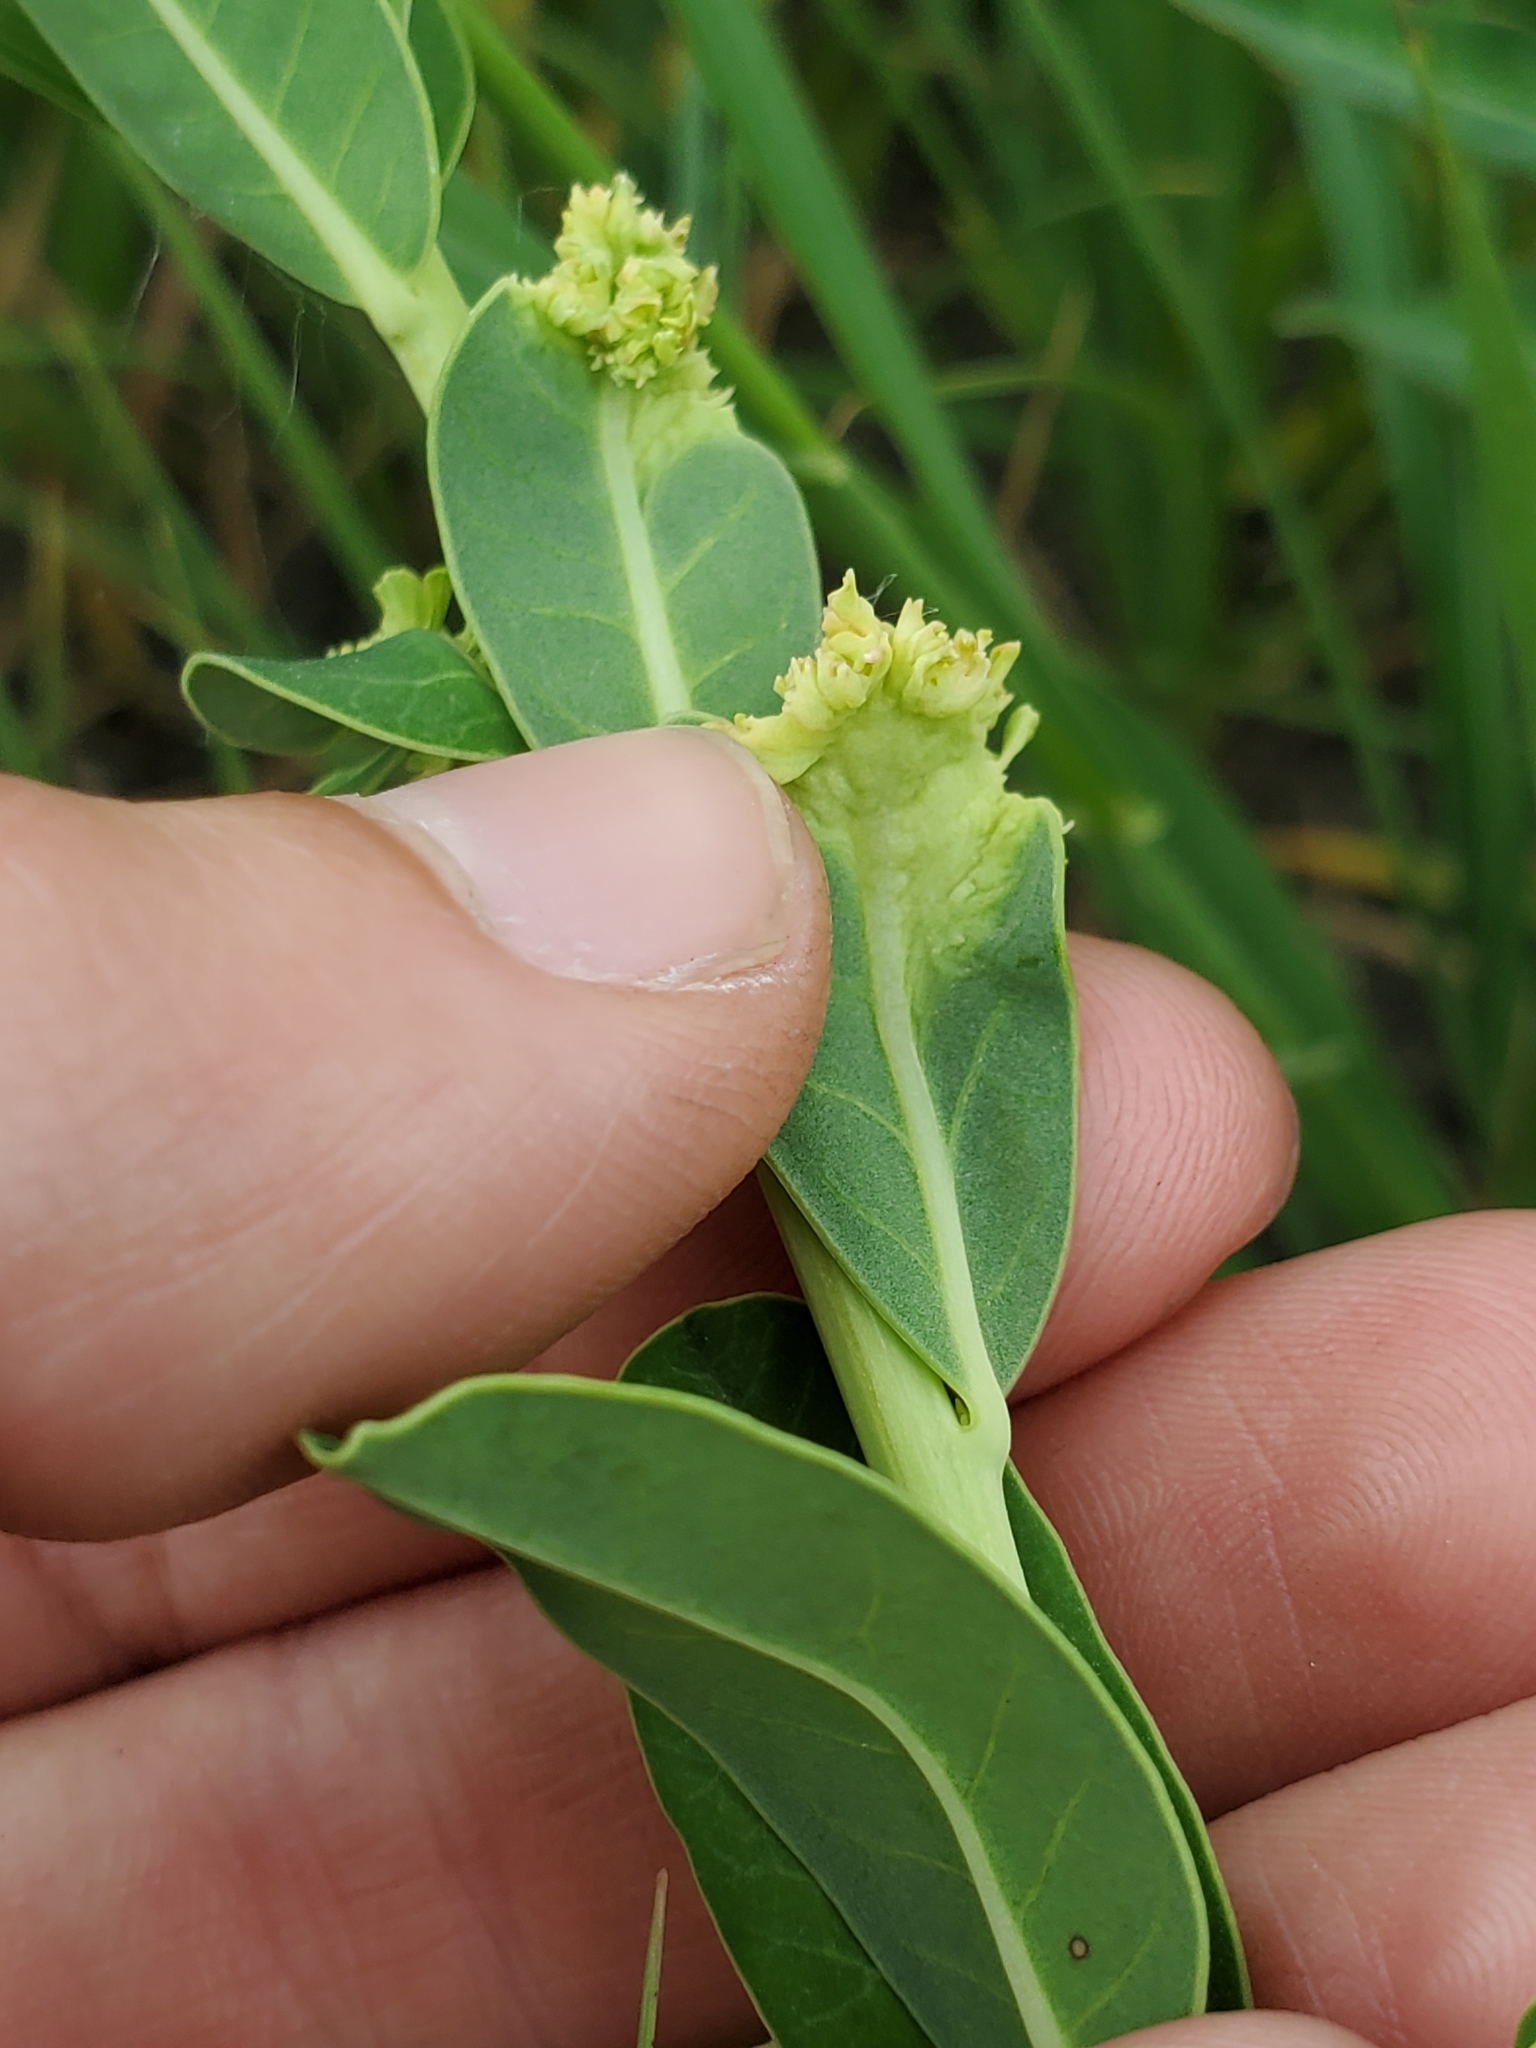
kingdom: Plantae
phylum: Tracheophyta
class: Magnoliopsida
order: Malpighiales
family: Euphorbiaceae
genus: Euphorbia
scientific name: Euphorbia corollata
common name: Flowering spurge
